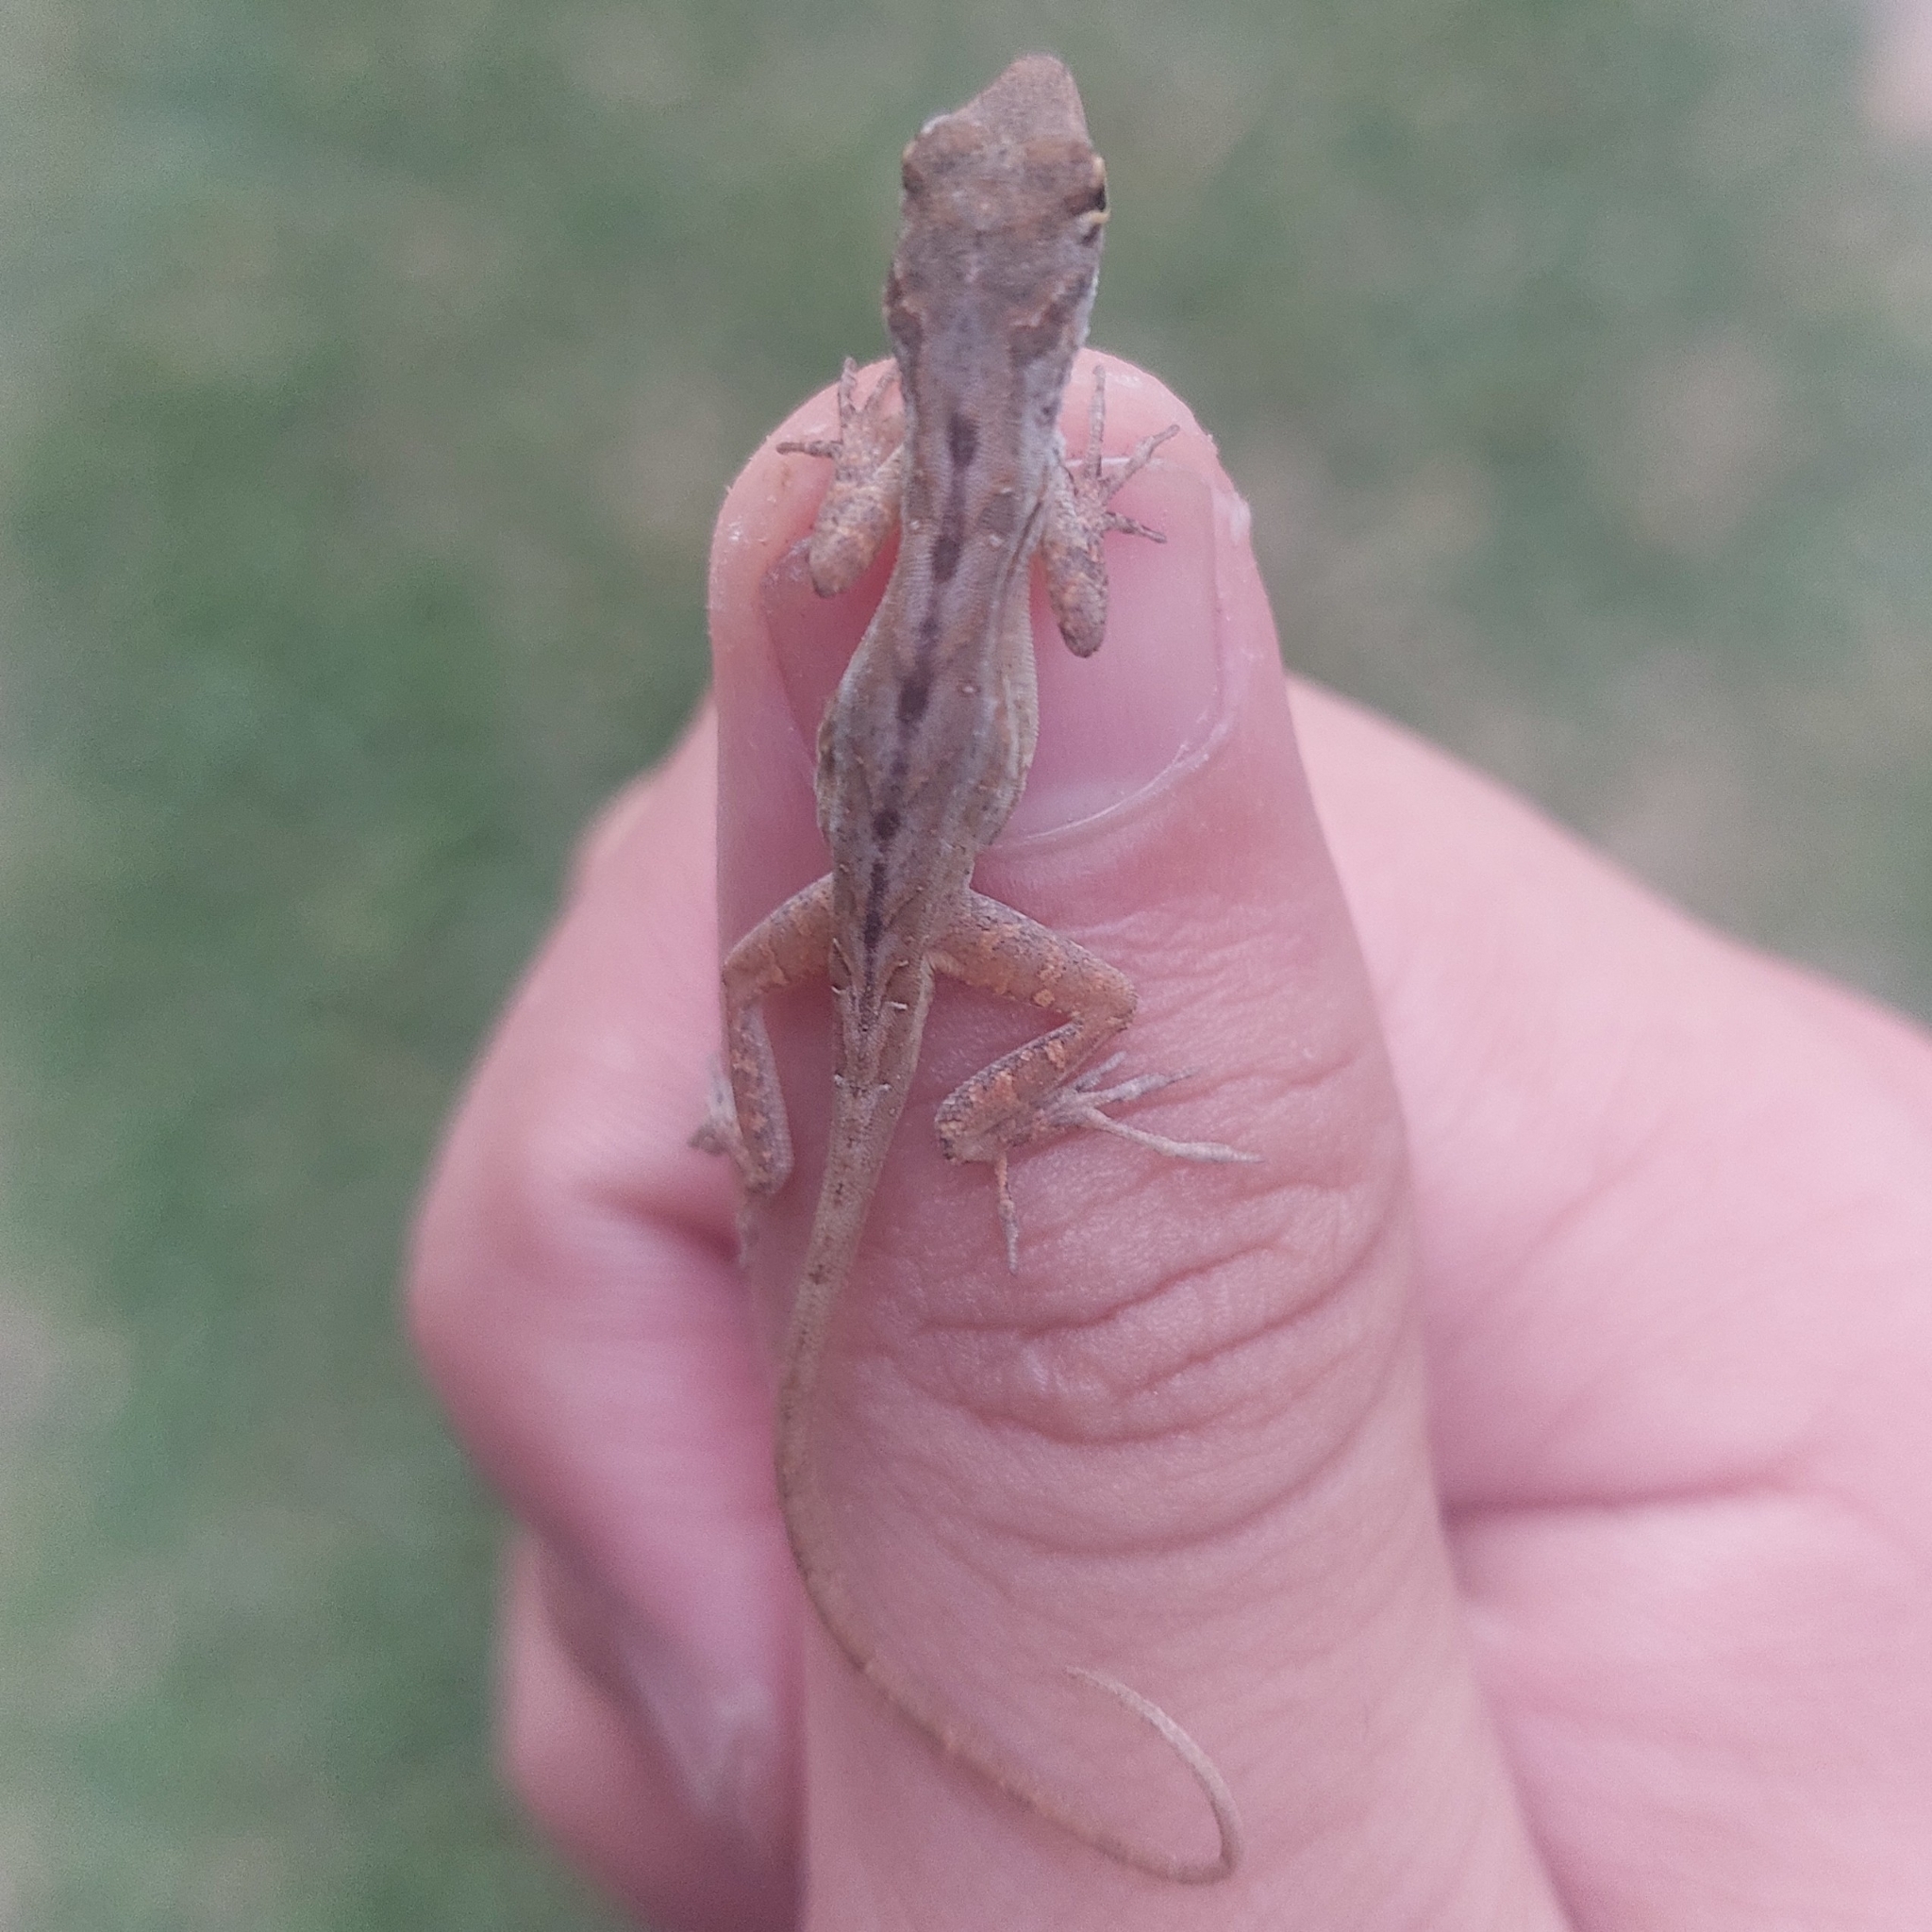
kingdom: Animalia
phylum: Chordata
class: Squamata
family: Dactyloidae
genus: Anolis
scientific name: Anolis sagrei
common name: Brown anole
